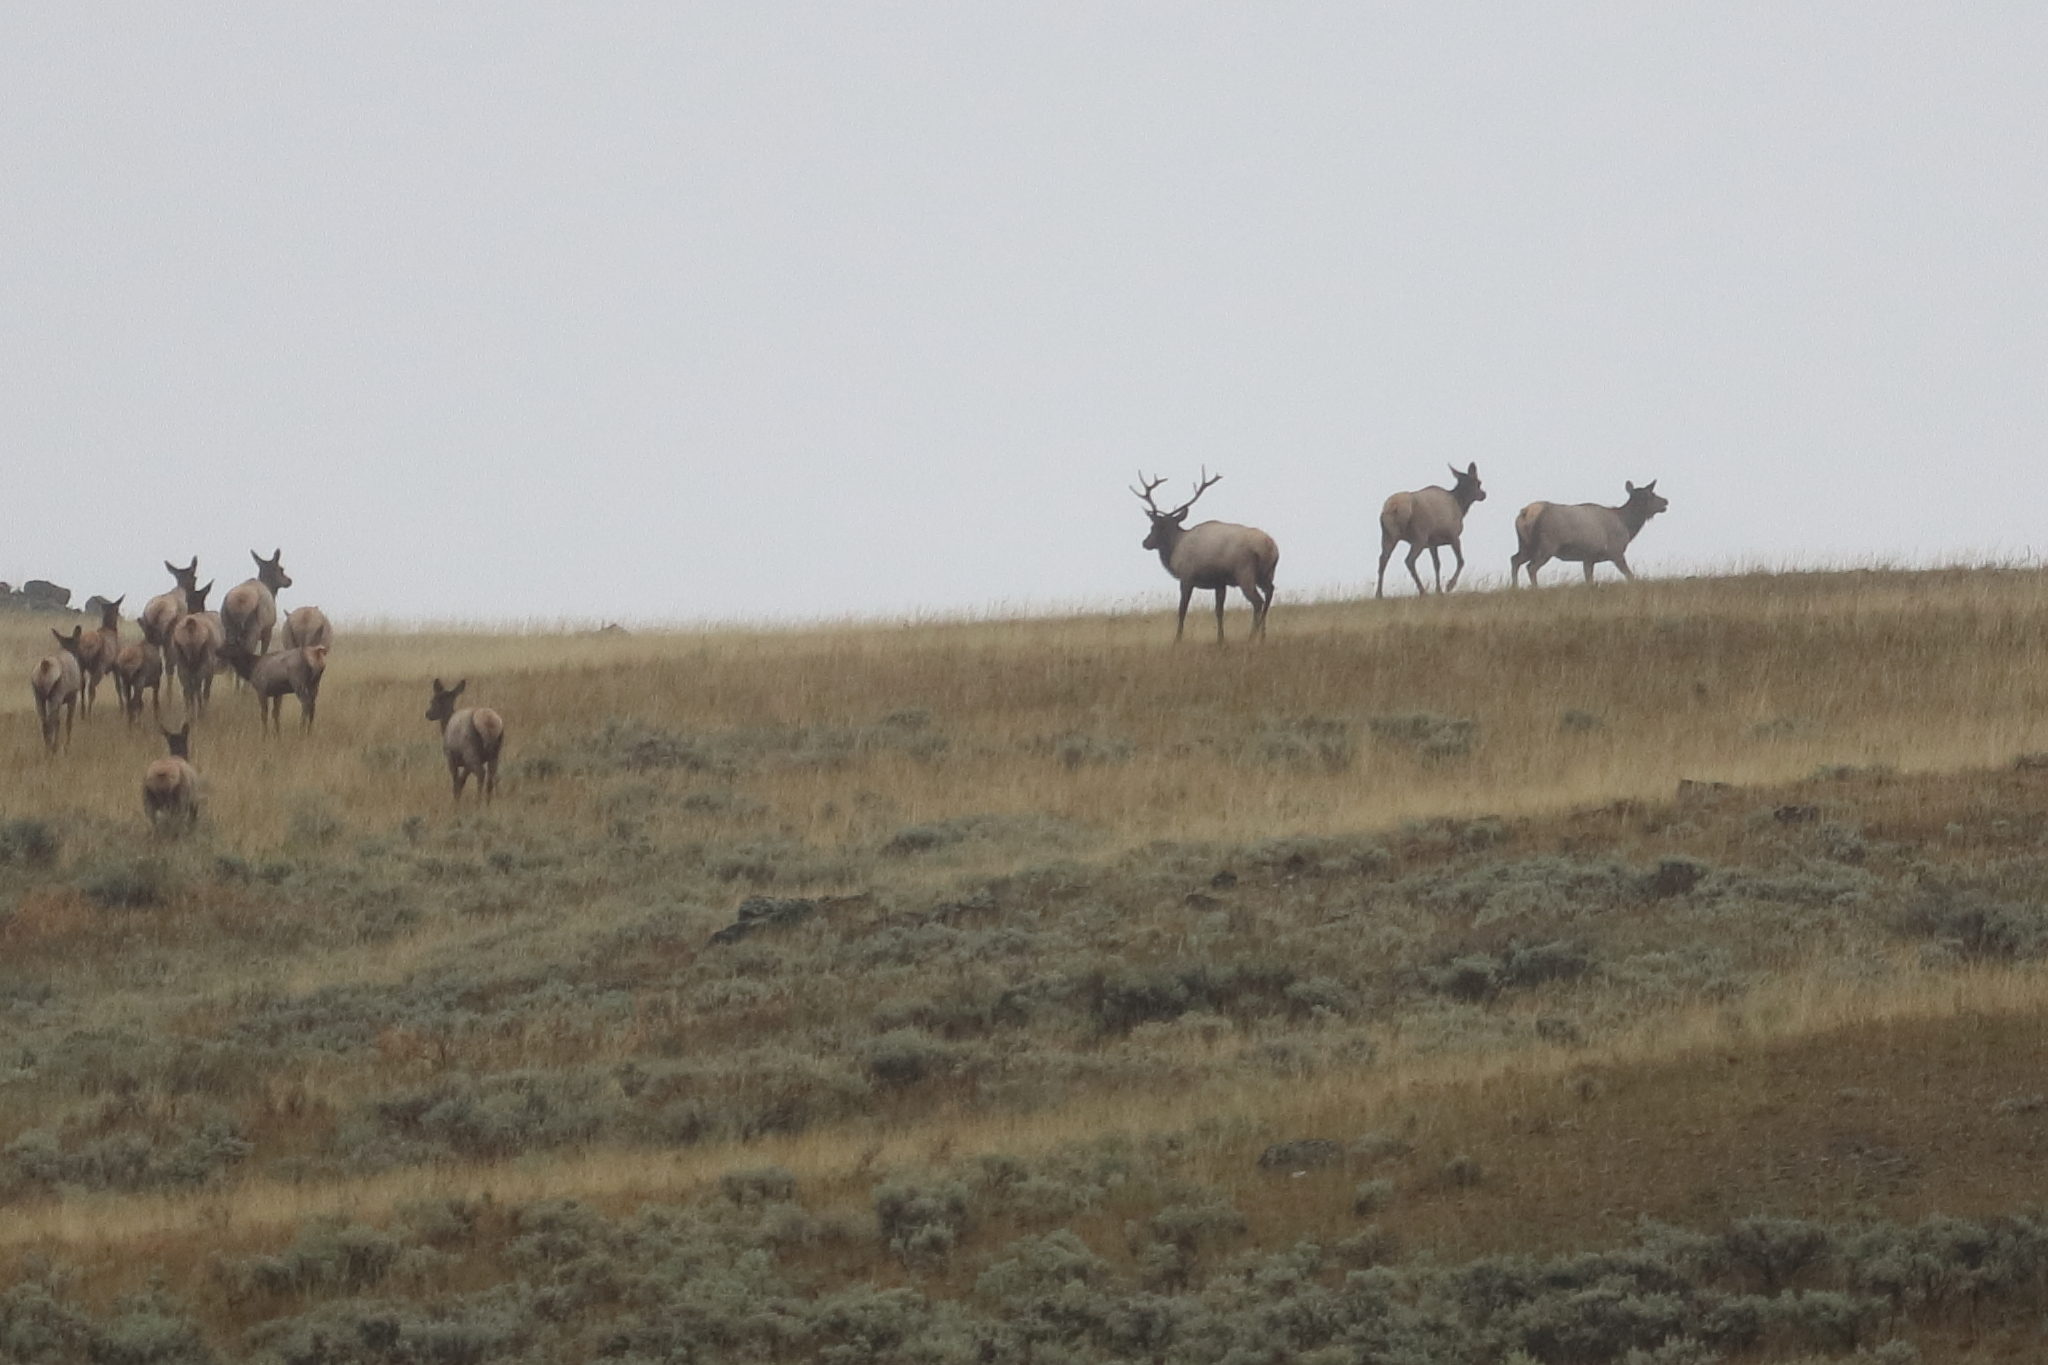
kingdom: Animalia
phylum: Chordata
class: Mammalia
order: Artiodactyla
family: Cervidae
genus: Cervus
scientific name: Cervus elaphus
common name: Red deer
